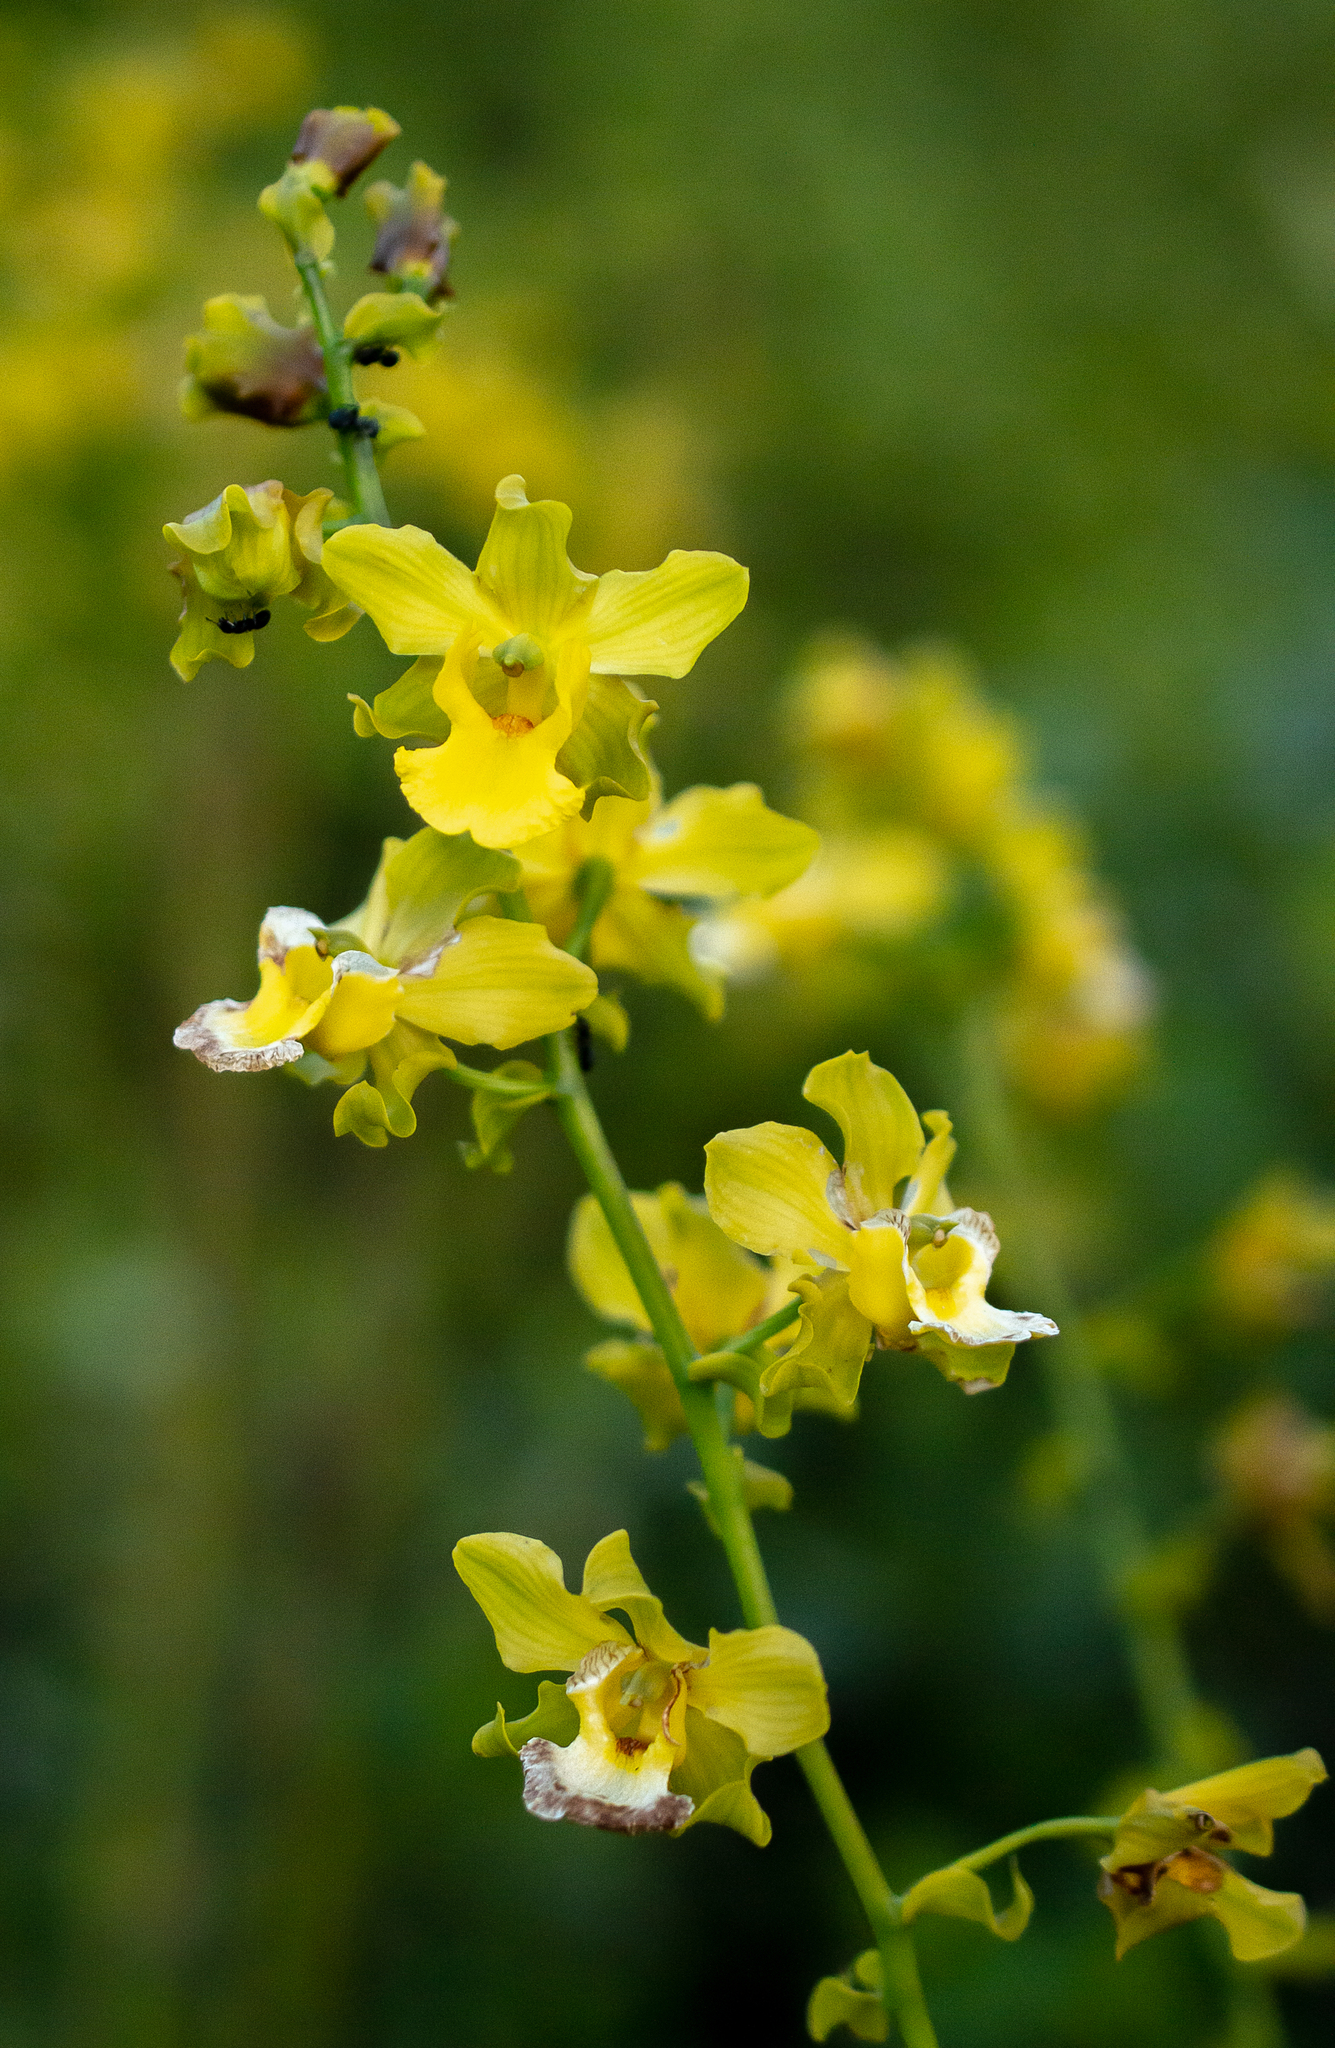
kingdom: Plantae
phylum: Tracheophyta
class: Liliopsida
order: Asparagales
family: Orchidaceae
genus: Cyrtopodium
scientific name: Cyrtopodium andersonii
